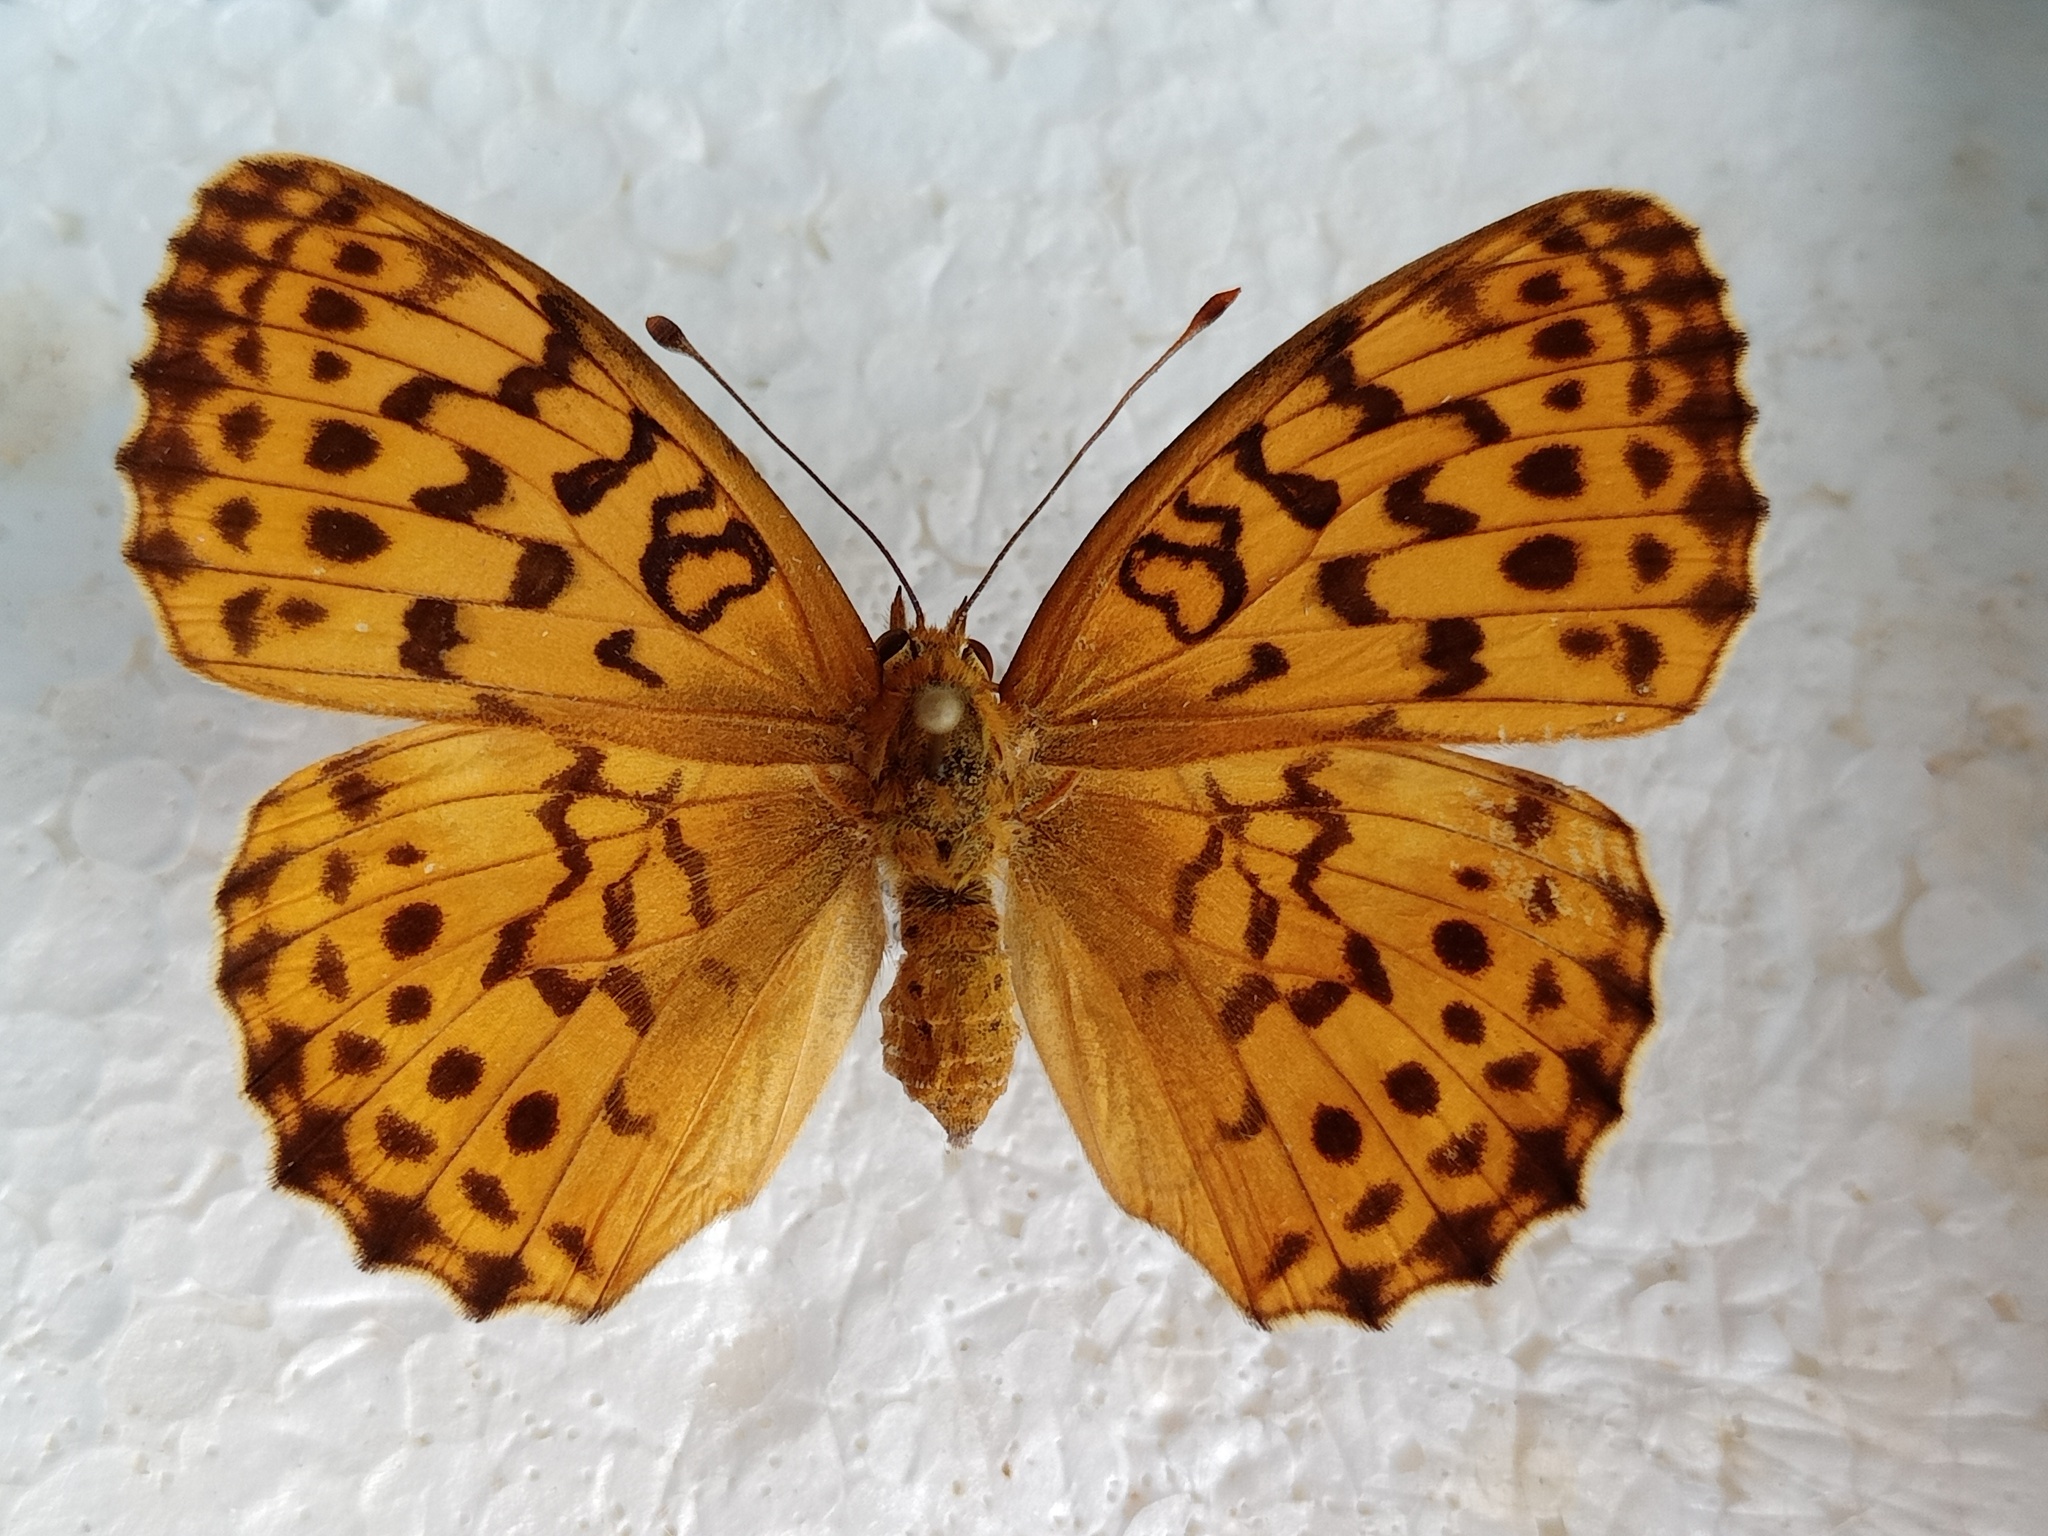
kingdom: Animalia
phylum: Arthropoda
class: Insecta
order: Lepidoptera
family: Nymphalidae
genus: Brenthis
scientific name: Brenthis daphne
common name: Marbled fritillary
